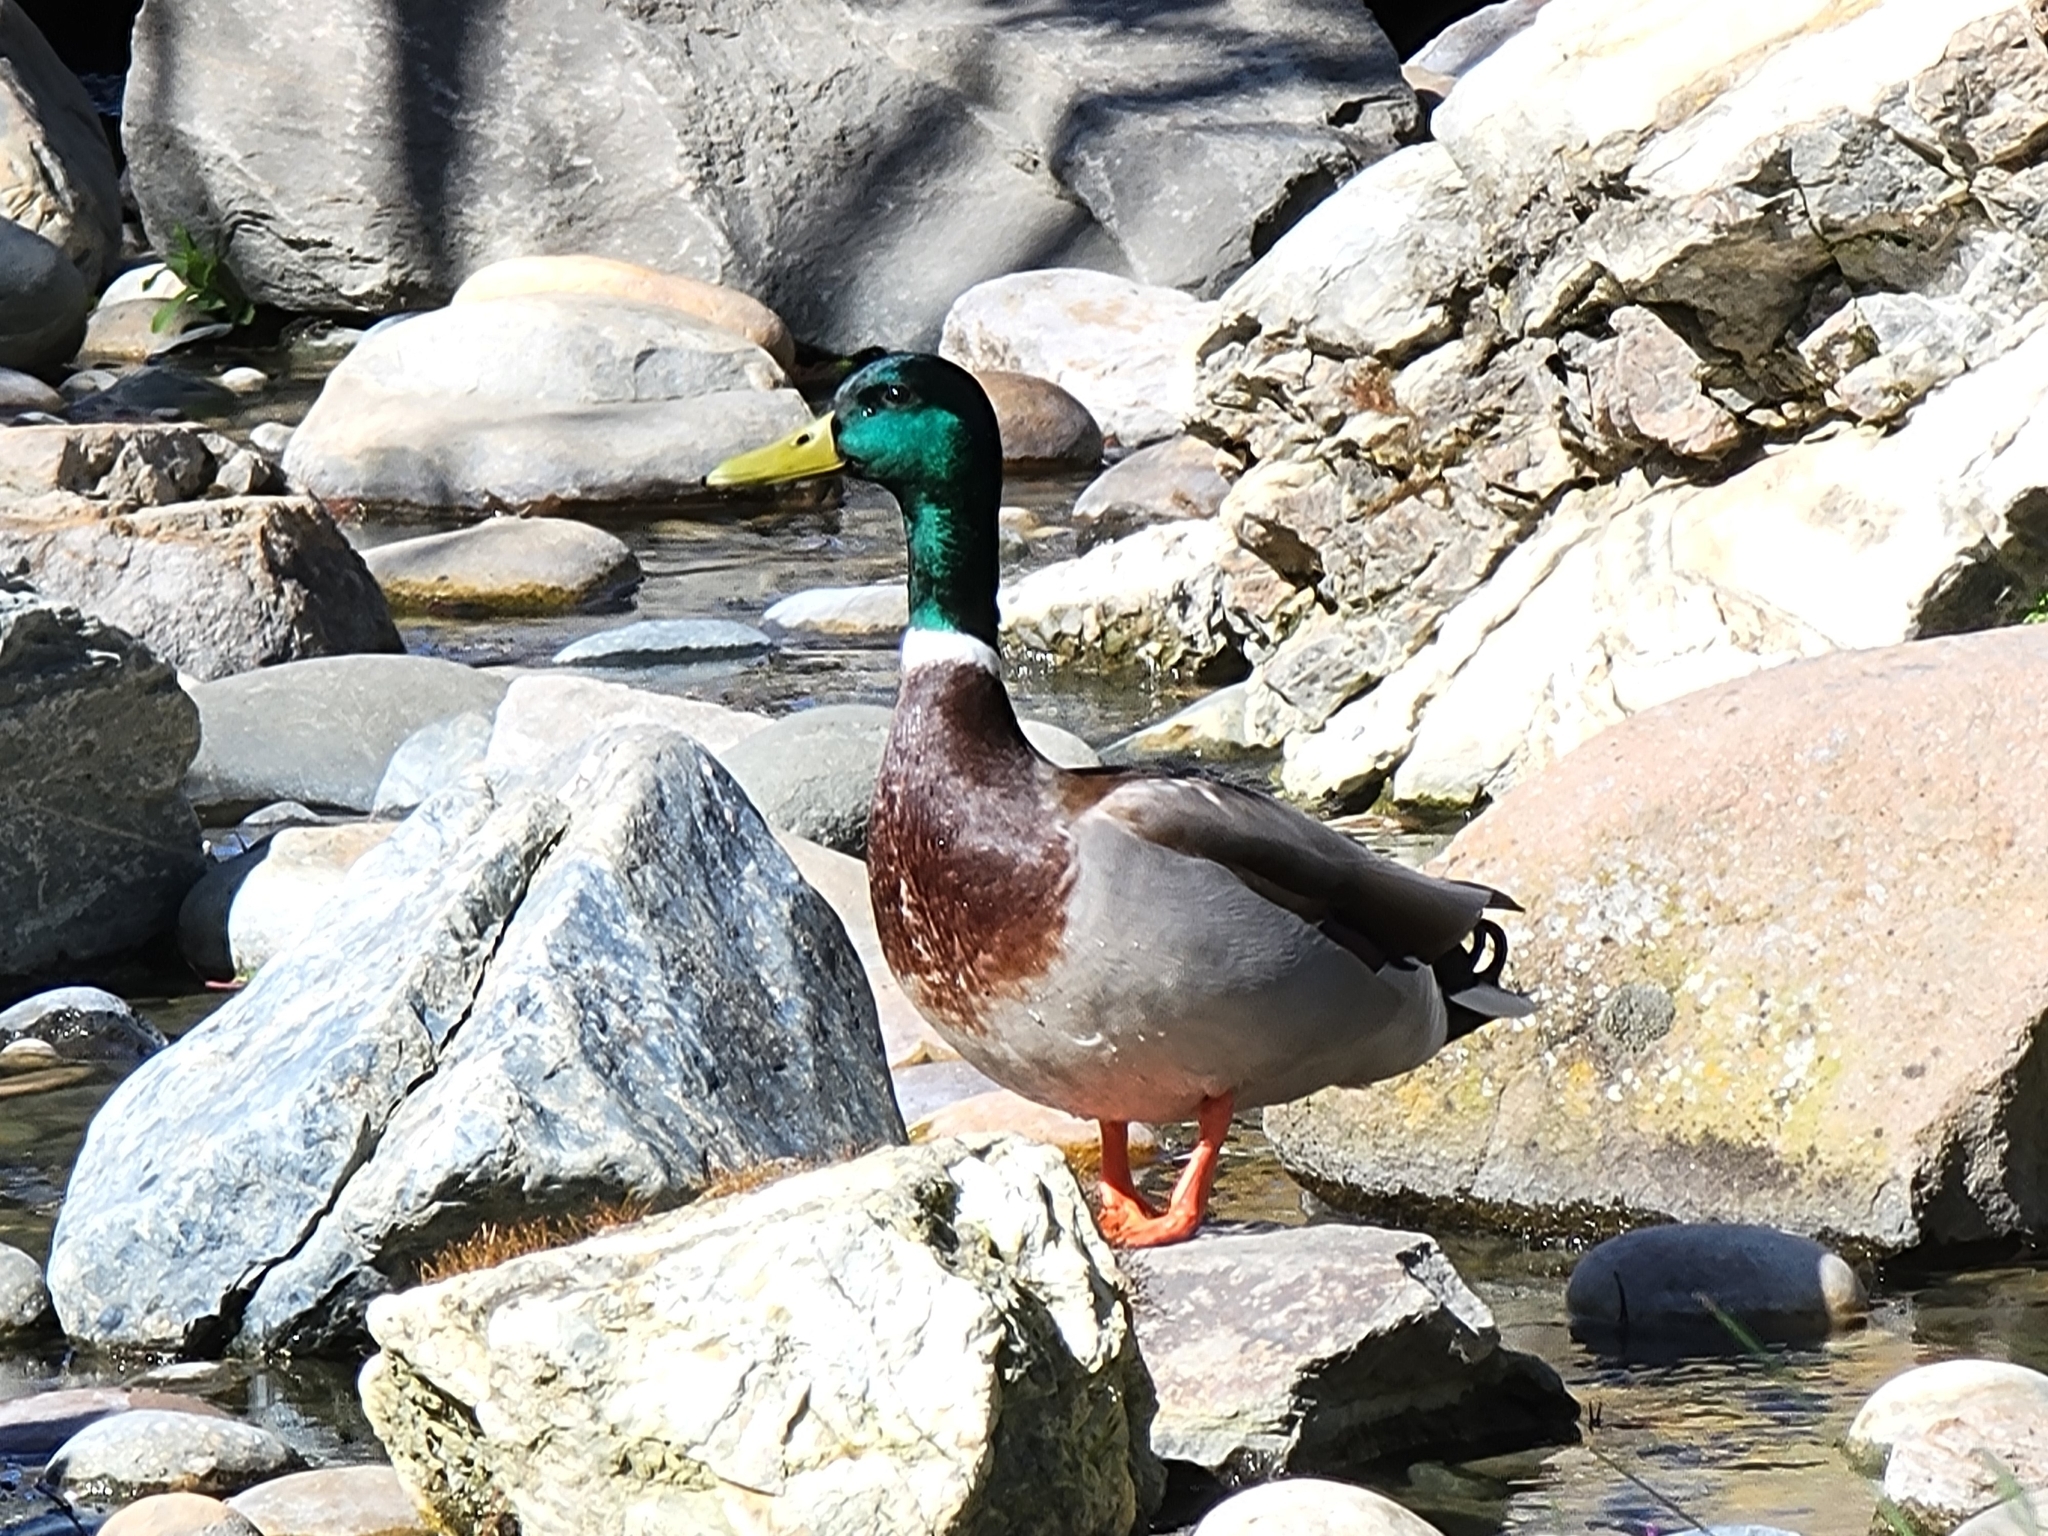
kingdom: Animalia
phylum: Chordata
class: Aves
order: Anseriformes
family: Anatidae
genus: Anas
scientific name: Anas platyrhynchos
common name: Mallard
